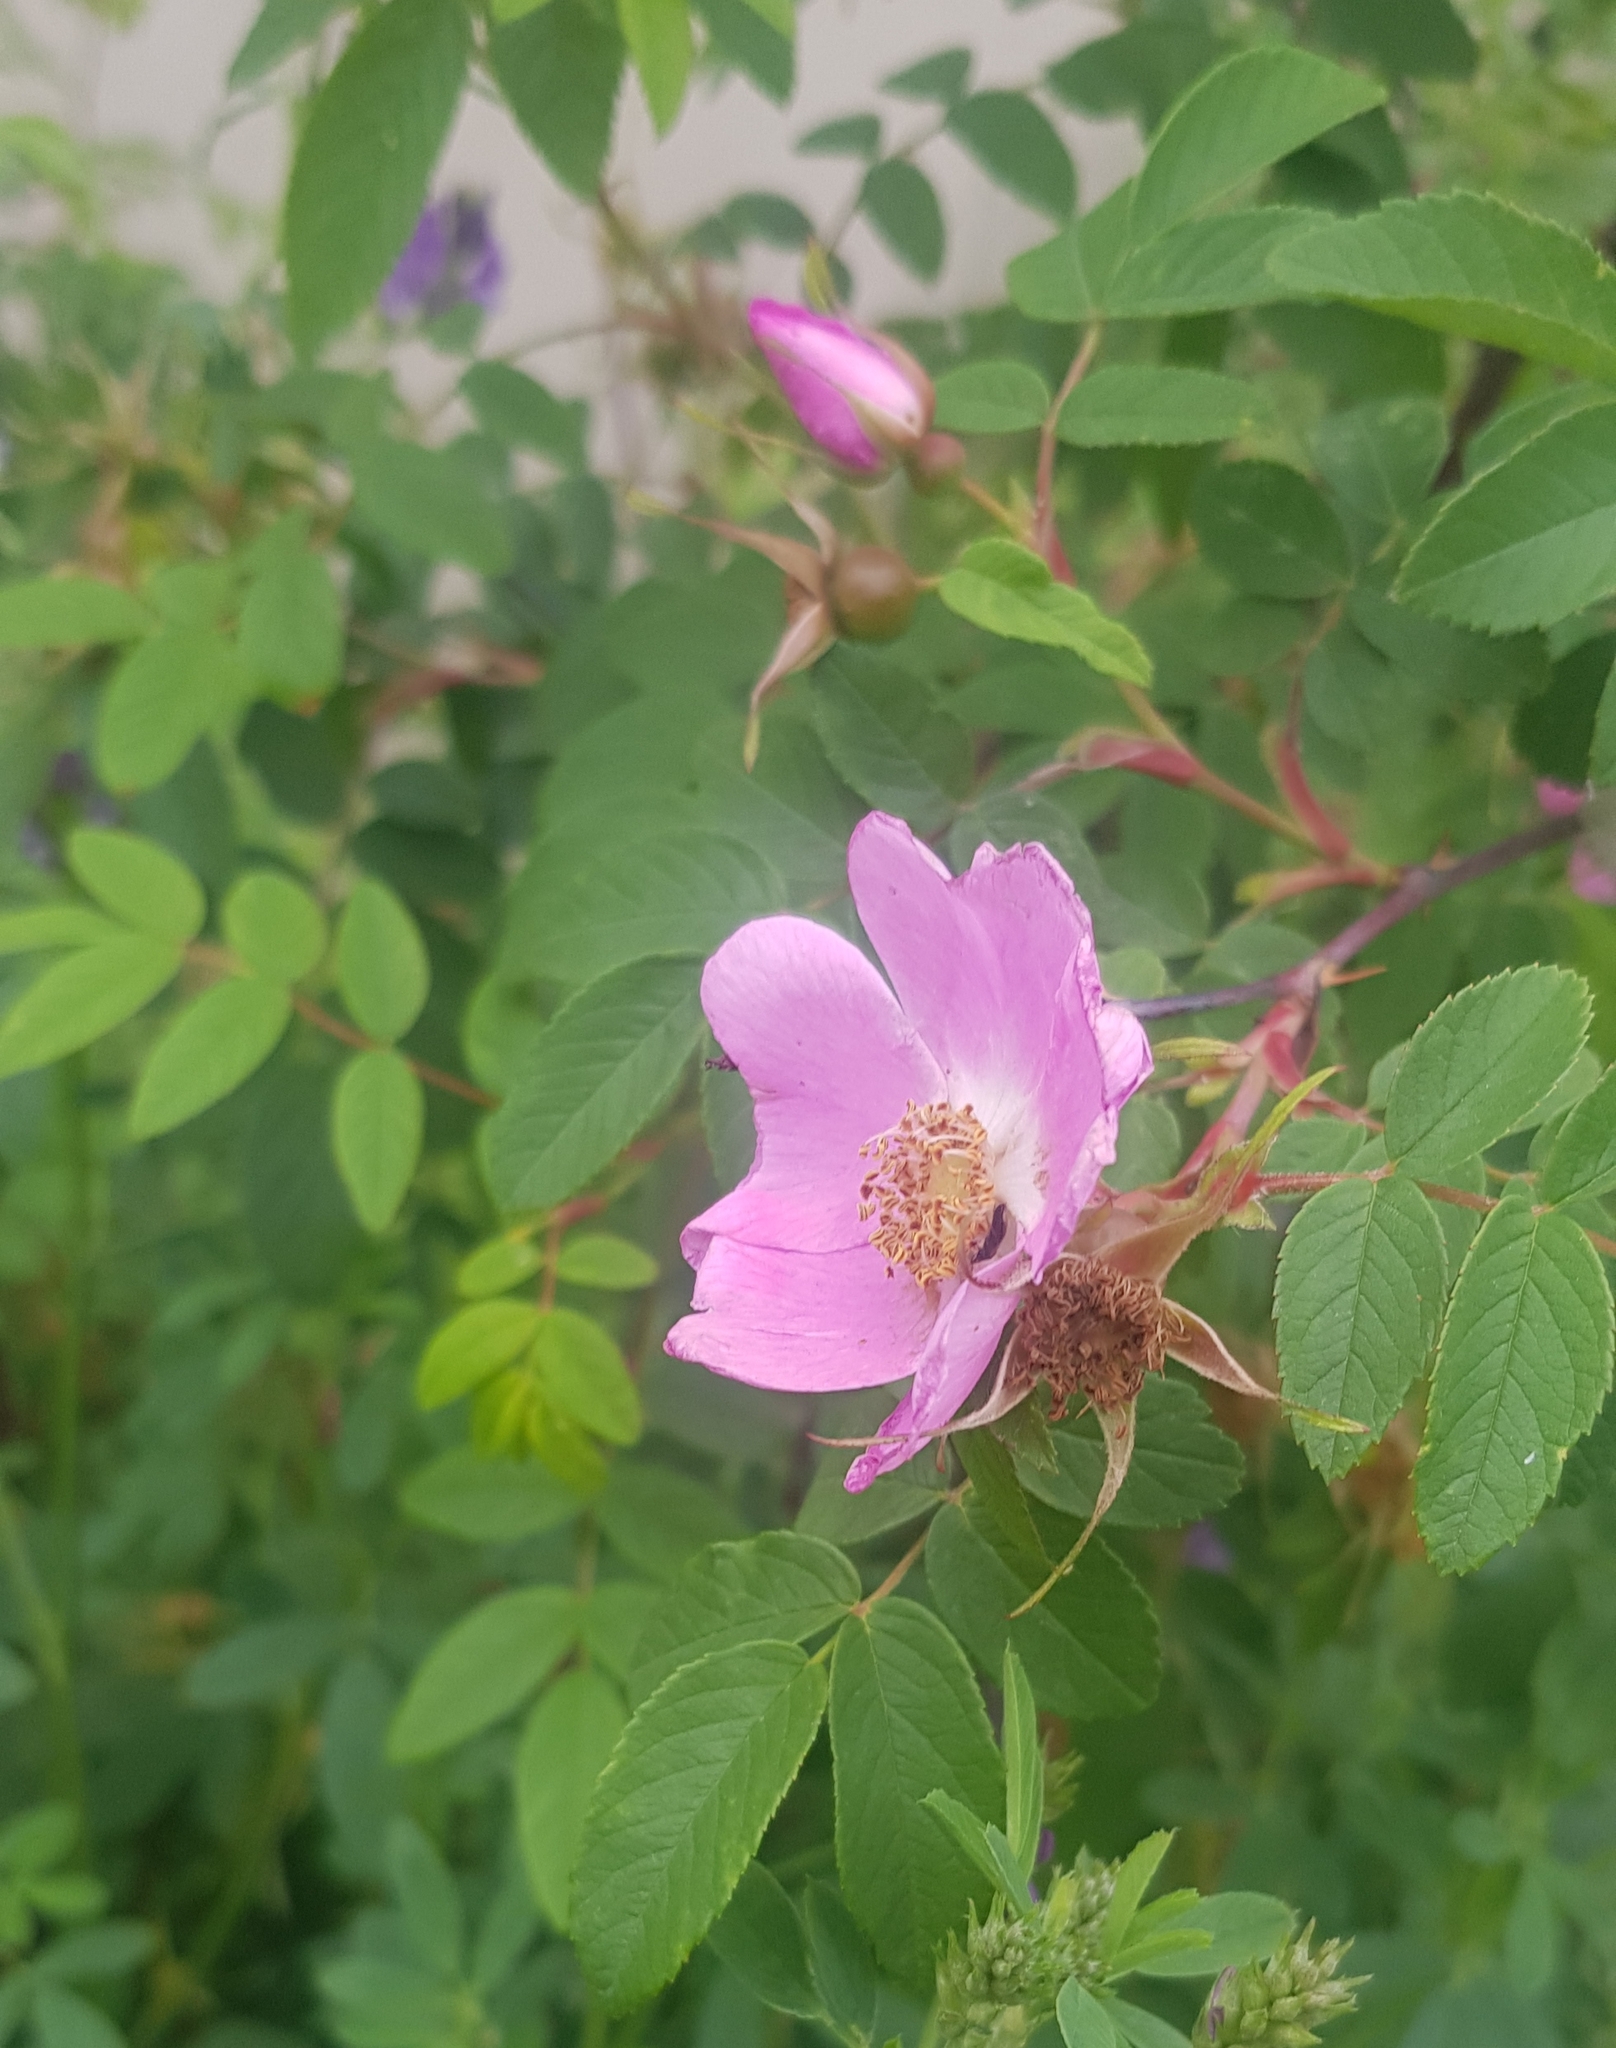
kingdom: Plantae
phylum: Tracheophyta
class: Magnoliopsida
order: Rosales
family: Rosaceae
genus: Rosa
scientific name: Rosa acicularis
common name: Prickly rose
